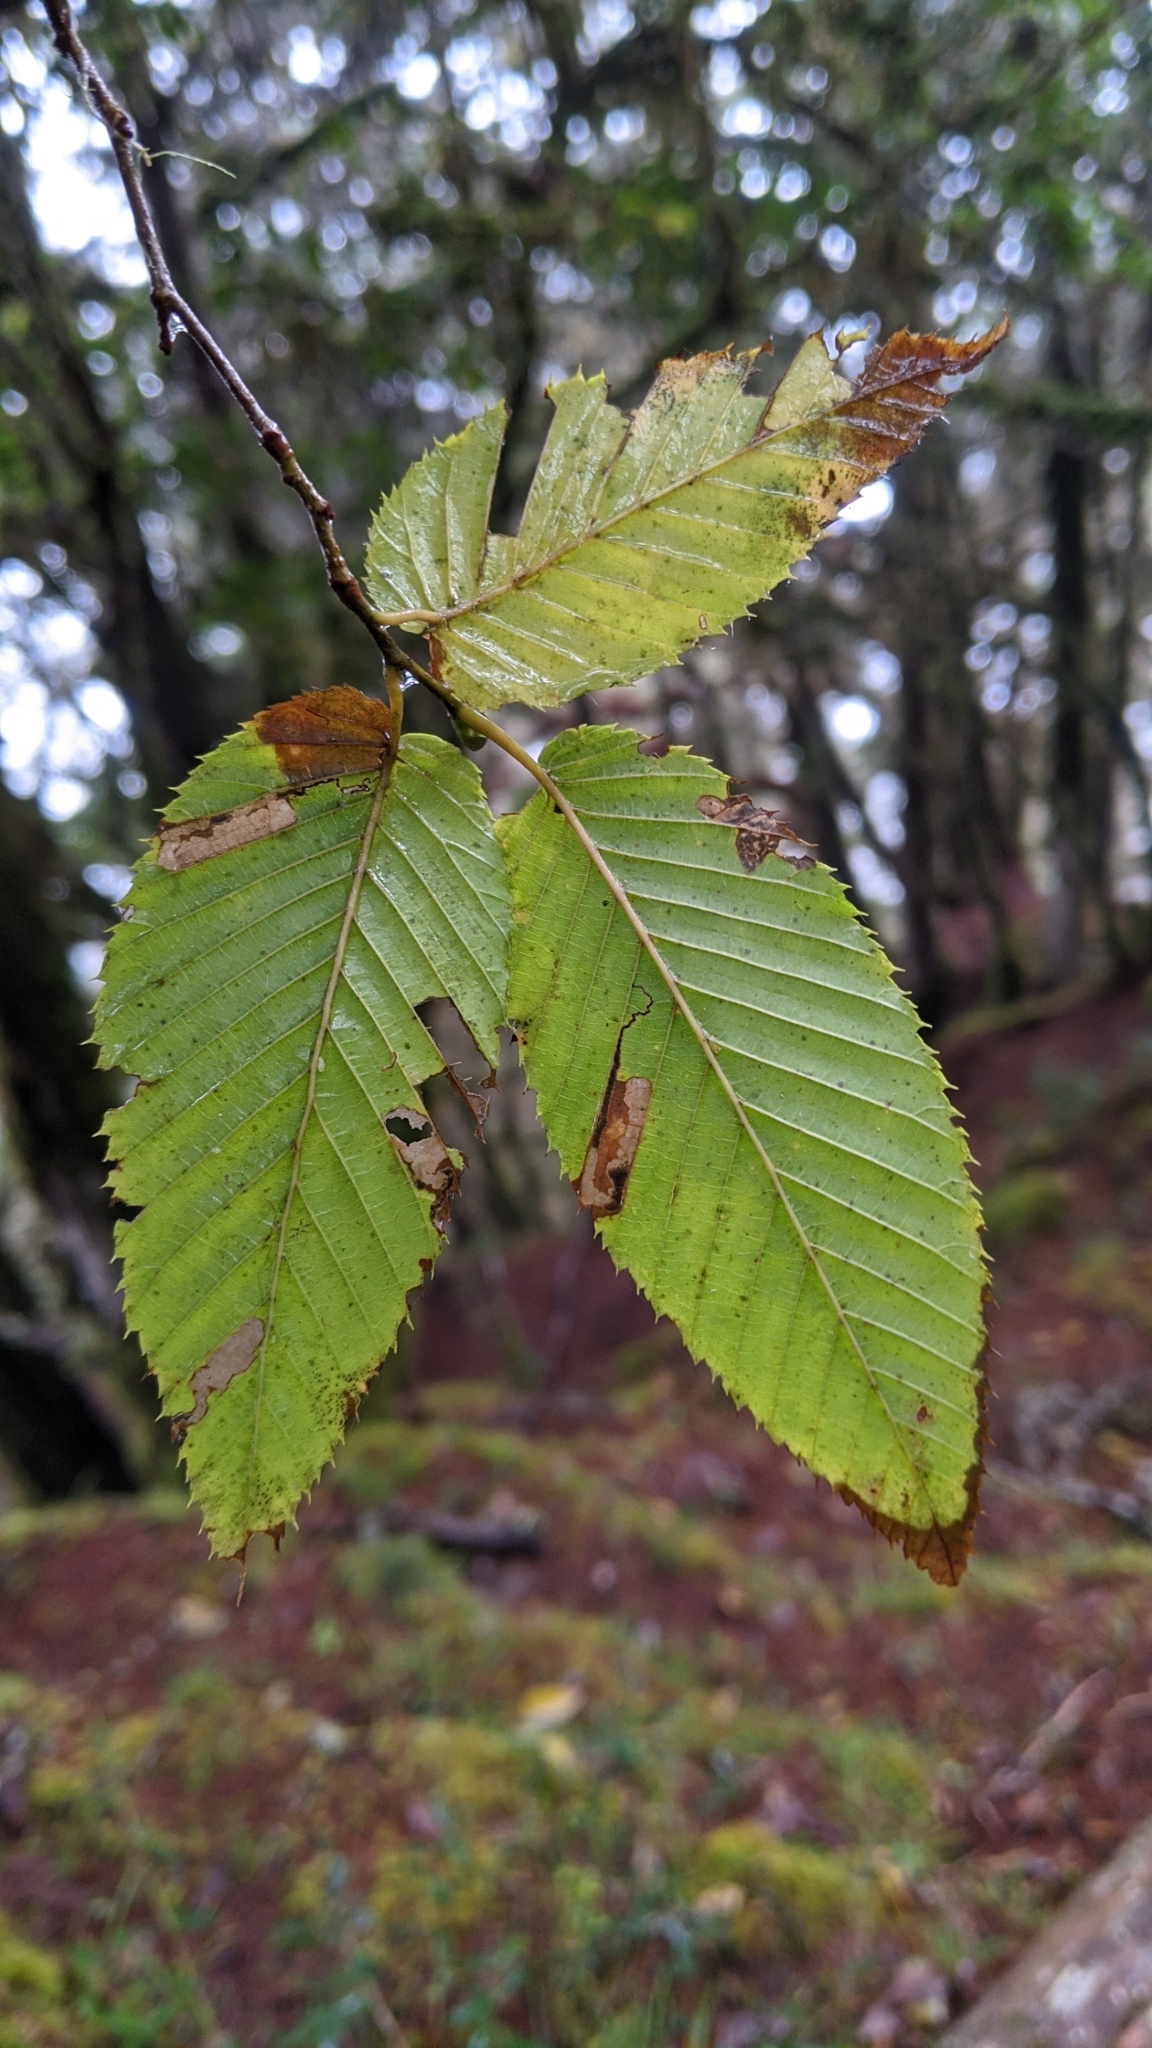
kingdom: Plantae
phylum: Tracheophyta
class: Magnoliopsida
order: Fagales
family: Betulaceae
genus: Carpinus
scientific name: Carpinus rankanensis
